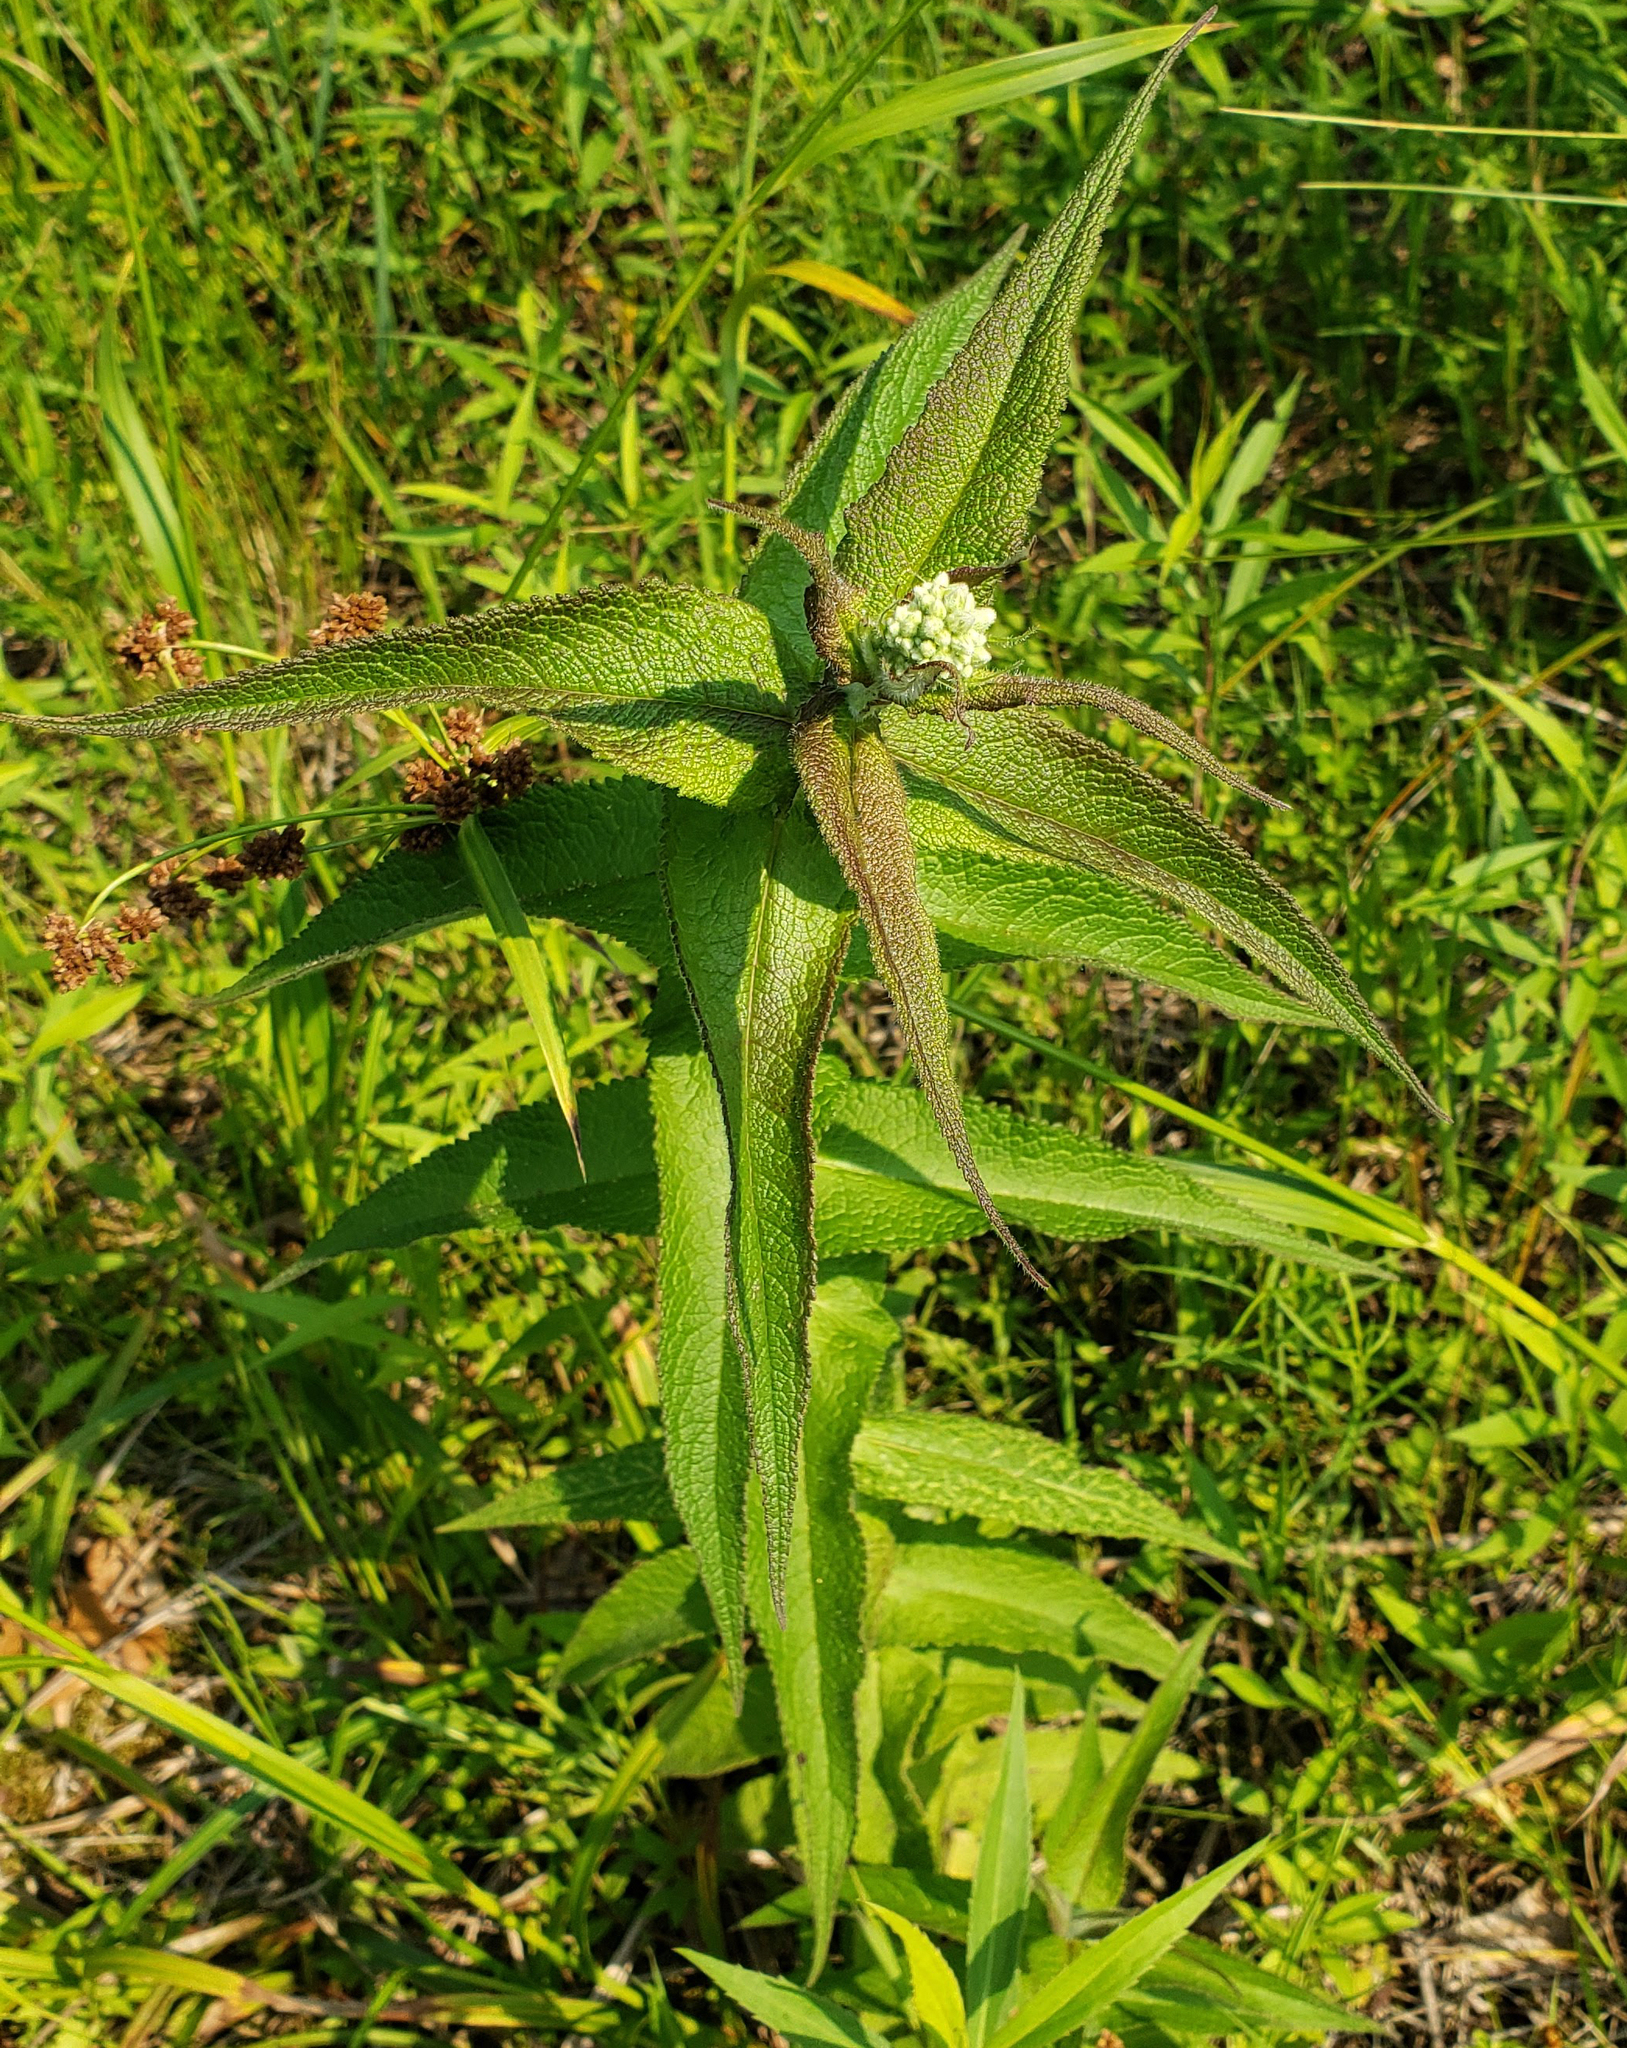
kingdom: Plantae
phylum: Tracheophyta
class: Magnoliopsida
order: Asterales
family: Asteraceae
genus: Eupatorium
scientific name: Eupatorium perfoliatum
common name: Boneset
